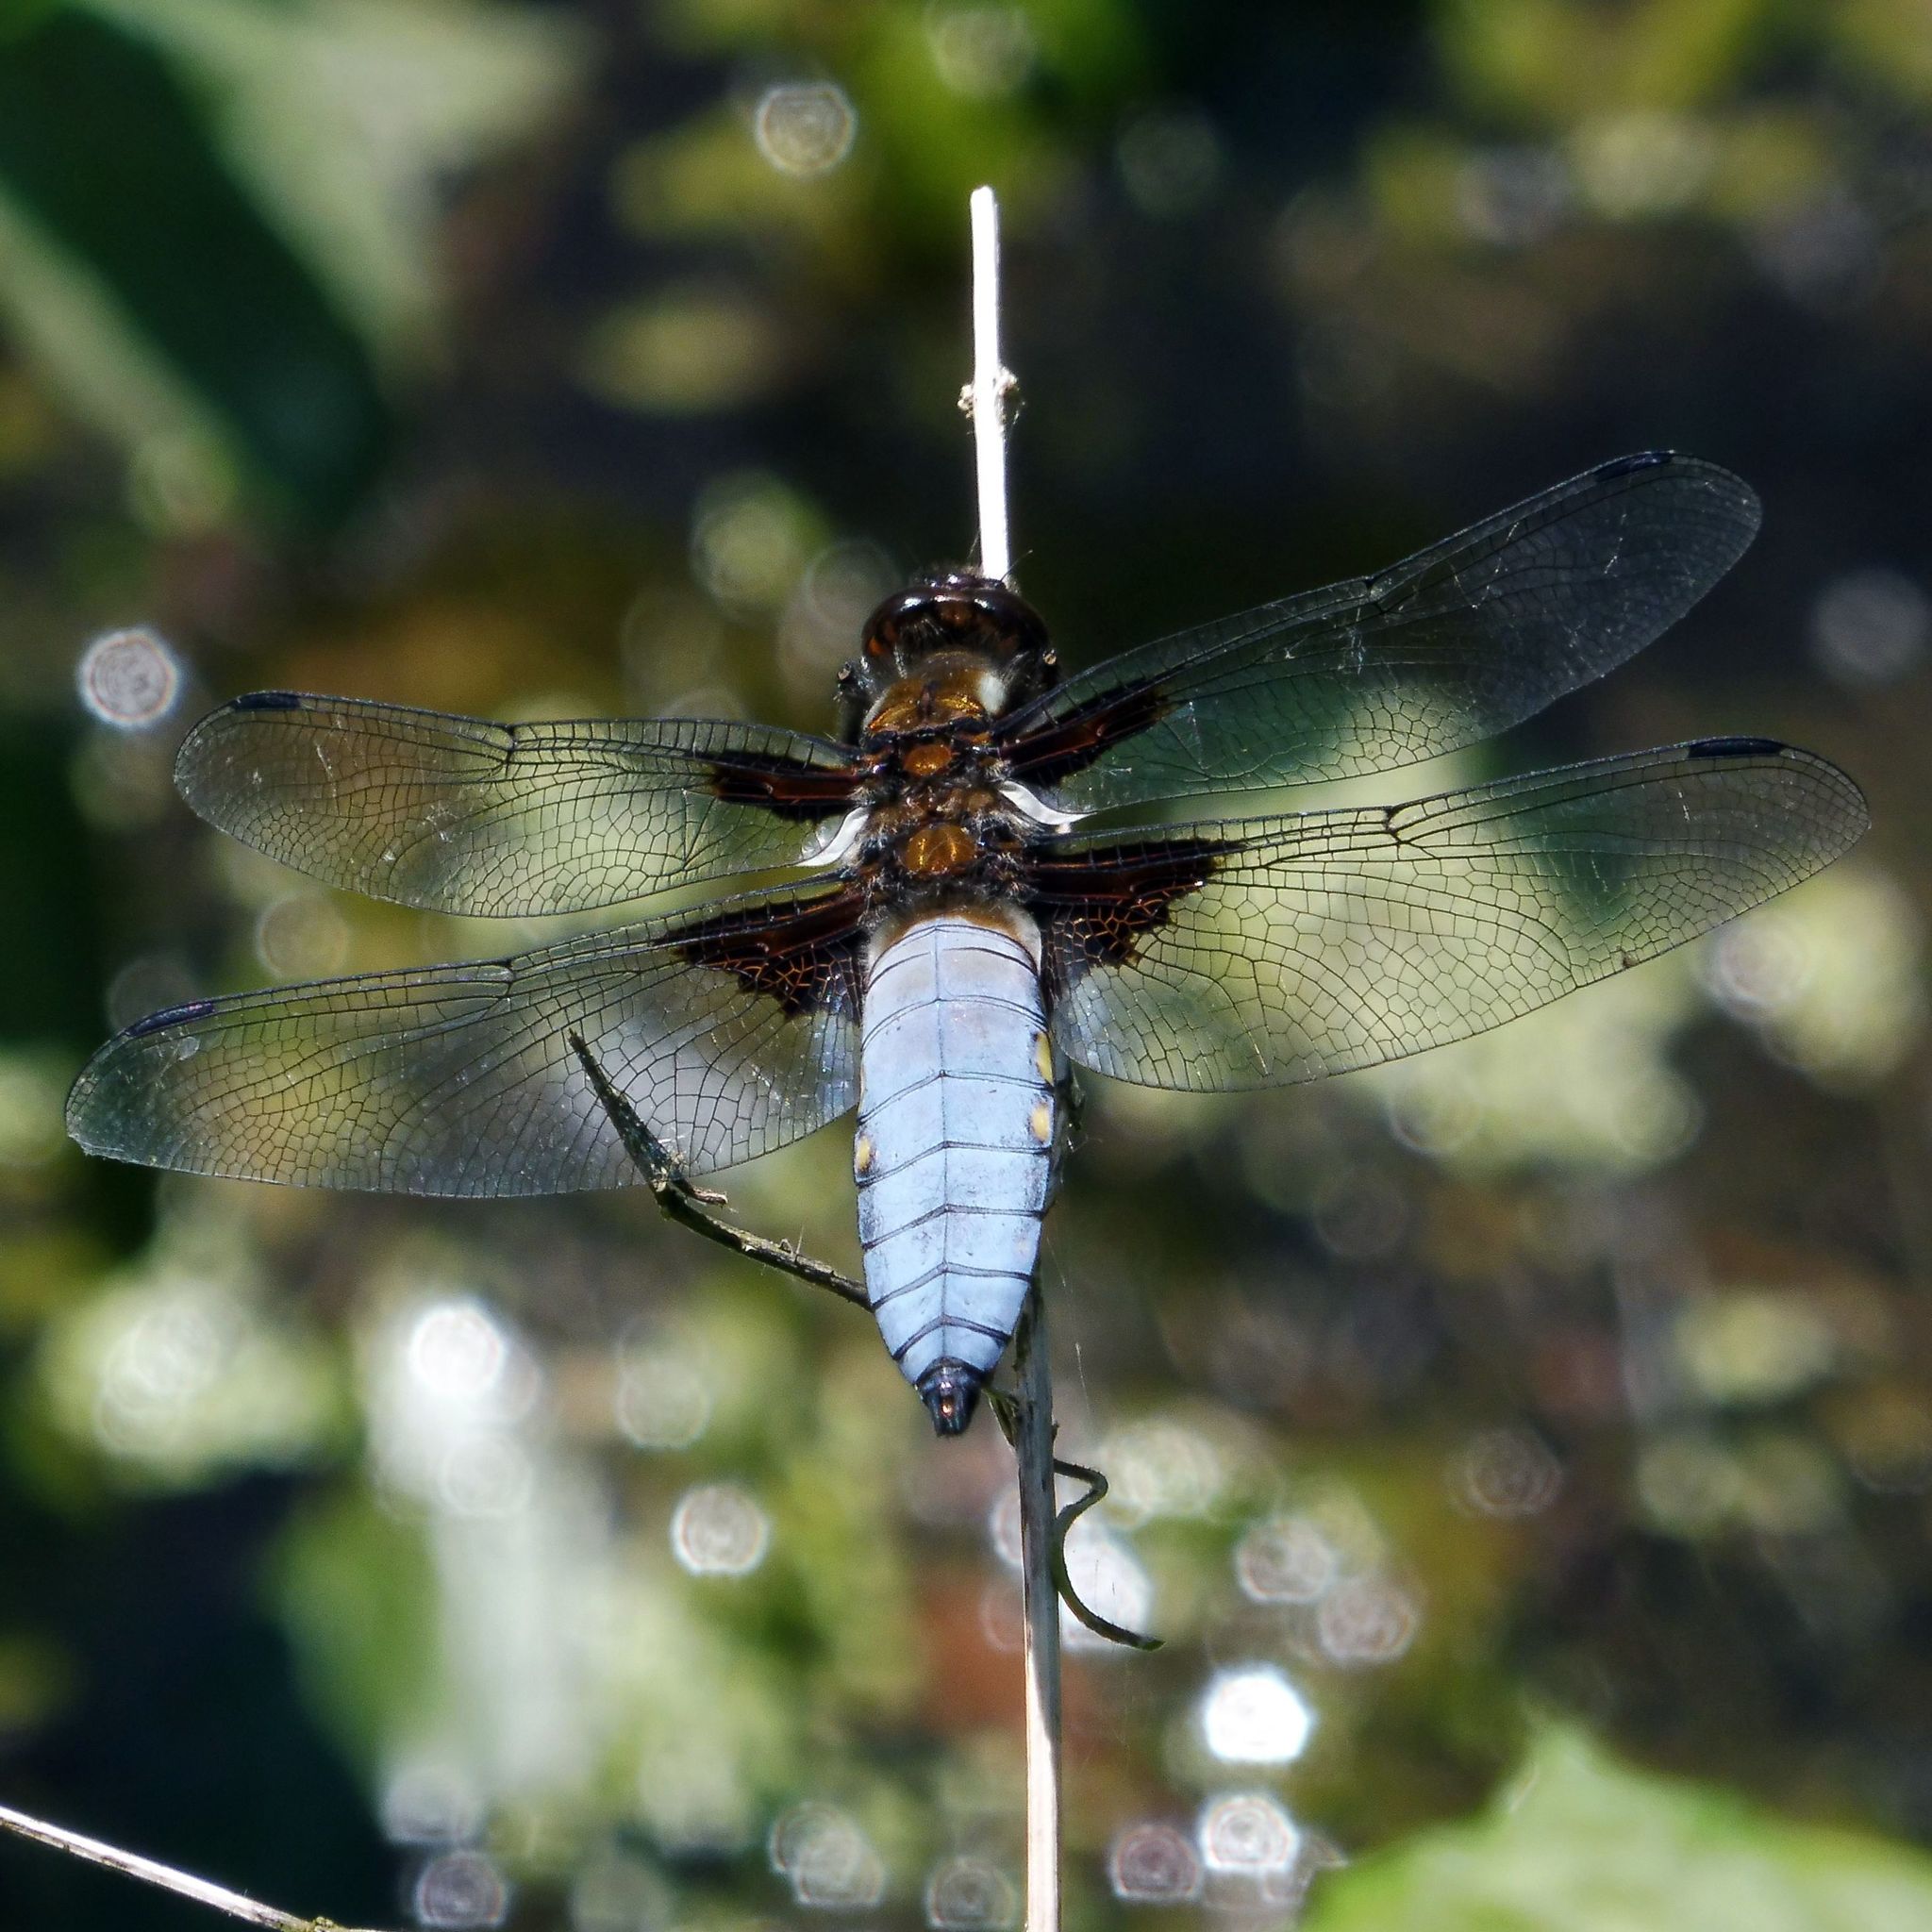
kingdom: Animalia
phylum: Arthropoda
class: Insecta
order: Odonata
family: Libellulidae
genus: Libellula
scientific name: Libellula depressa
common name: Broad-bodied chaser
